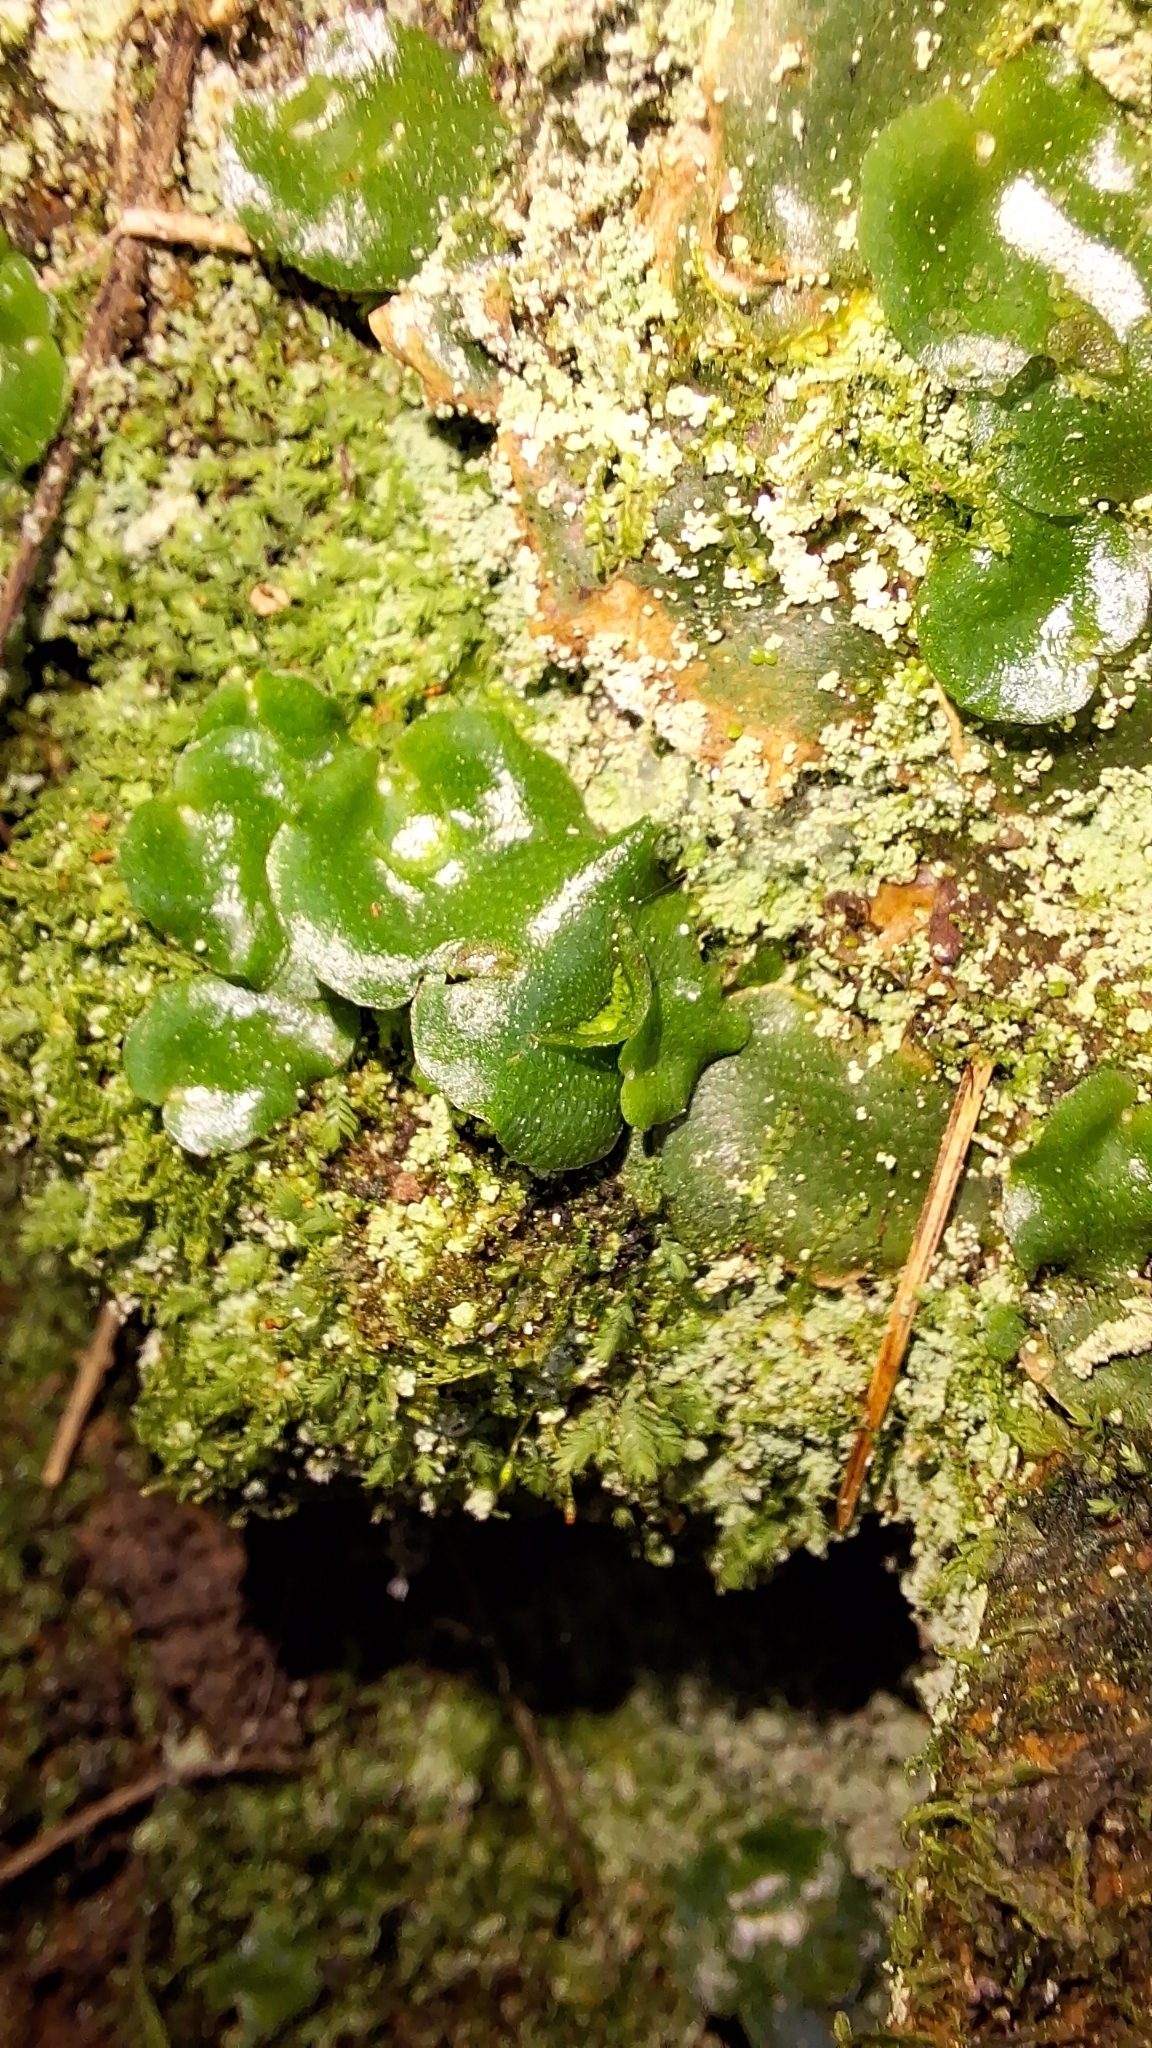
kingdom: Plantae
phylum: Marchantiophyta
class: Marchantiopsida
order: Lunulariales
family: Lunulariaceae
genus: Lunularia
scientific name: Lunularia cruciata
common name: Crescent-cup liverwort
